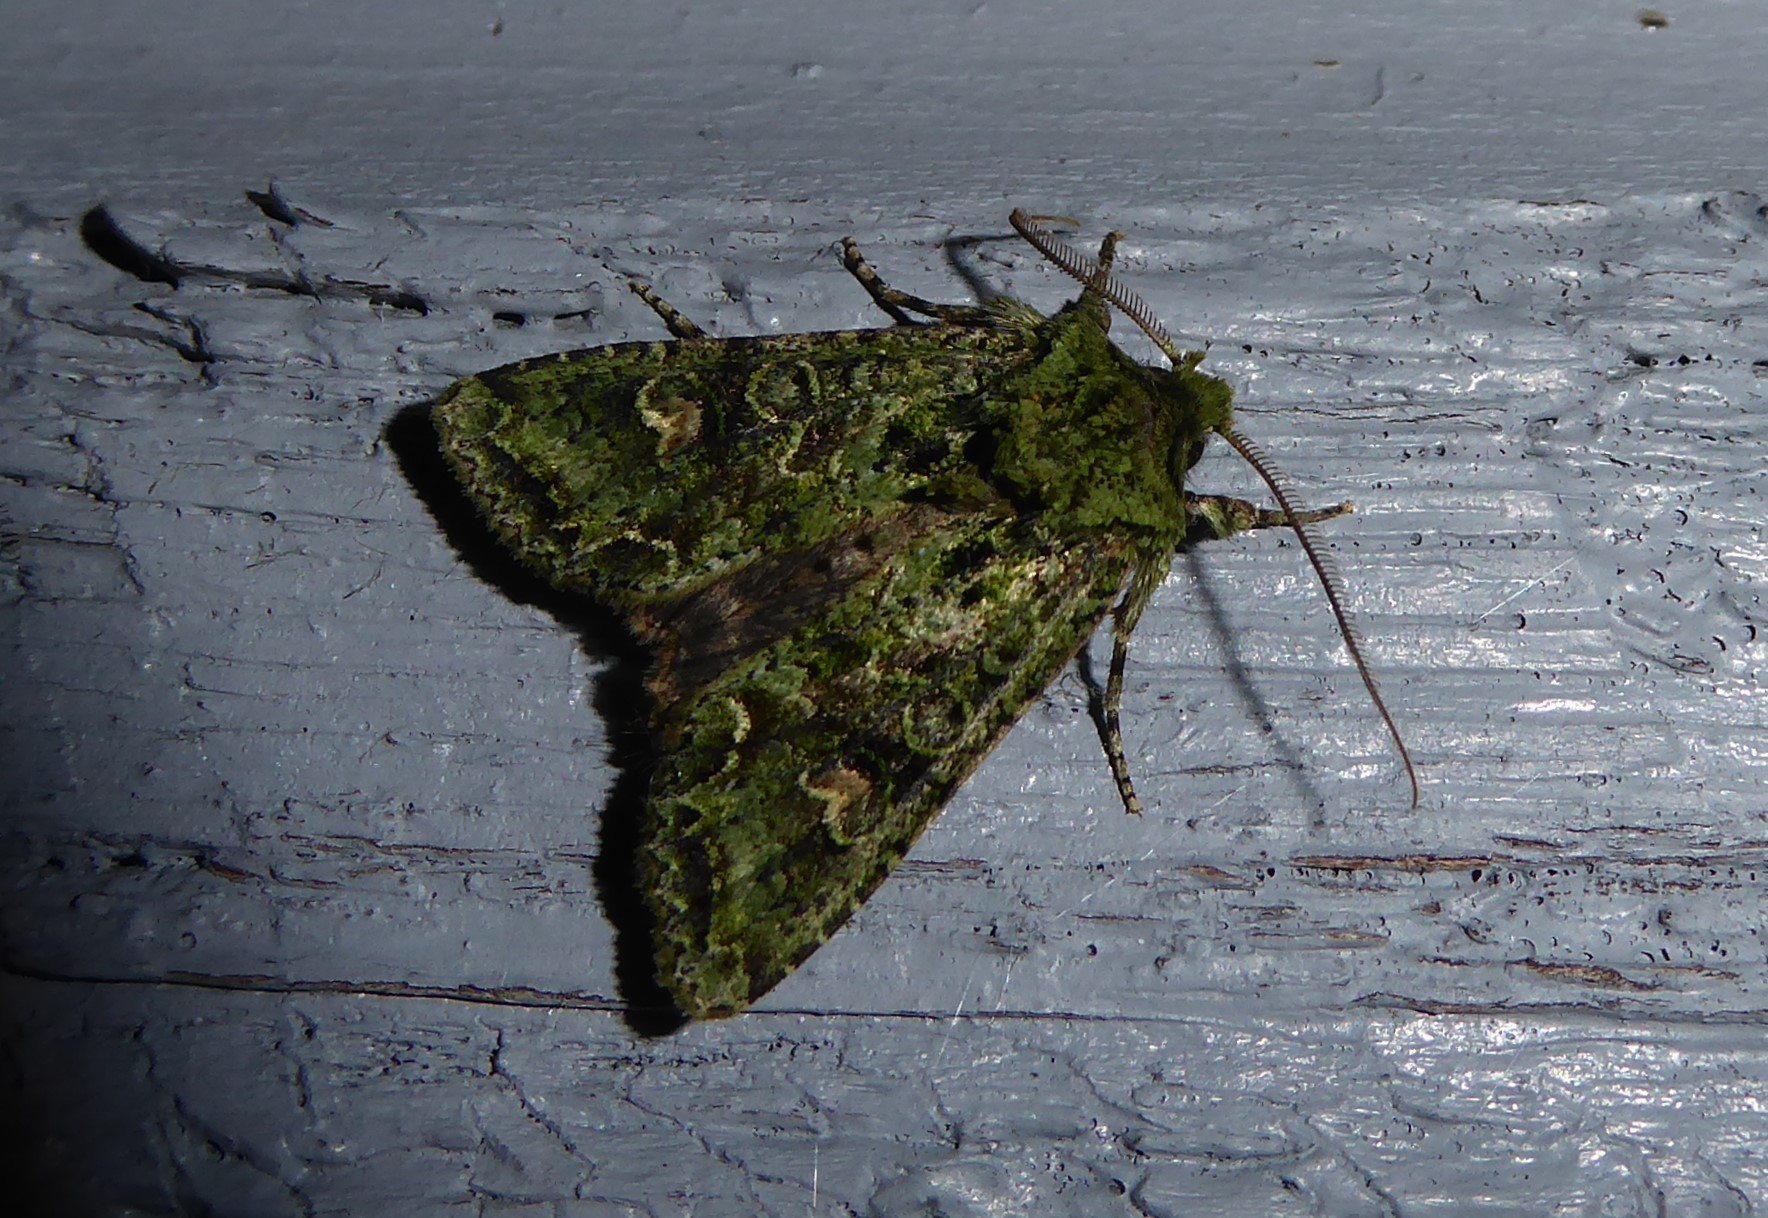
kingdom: Animalia
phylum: Arthropoda
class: Insecta
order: Lepidoptera
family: Noctuidae
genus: Ichneutica
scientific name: Ichneutica
